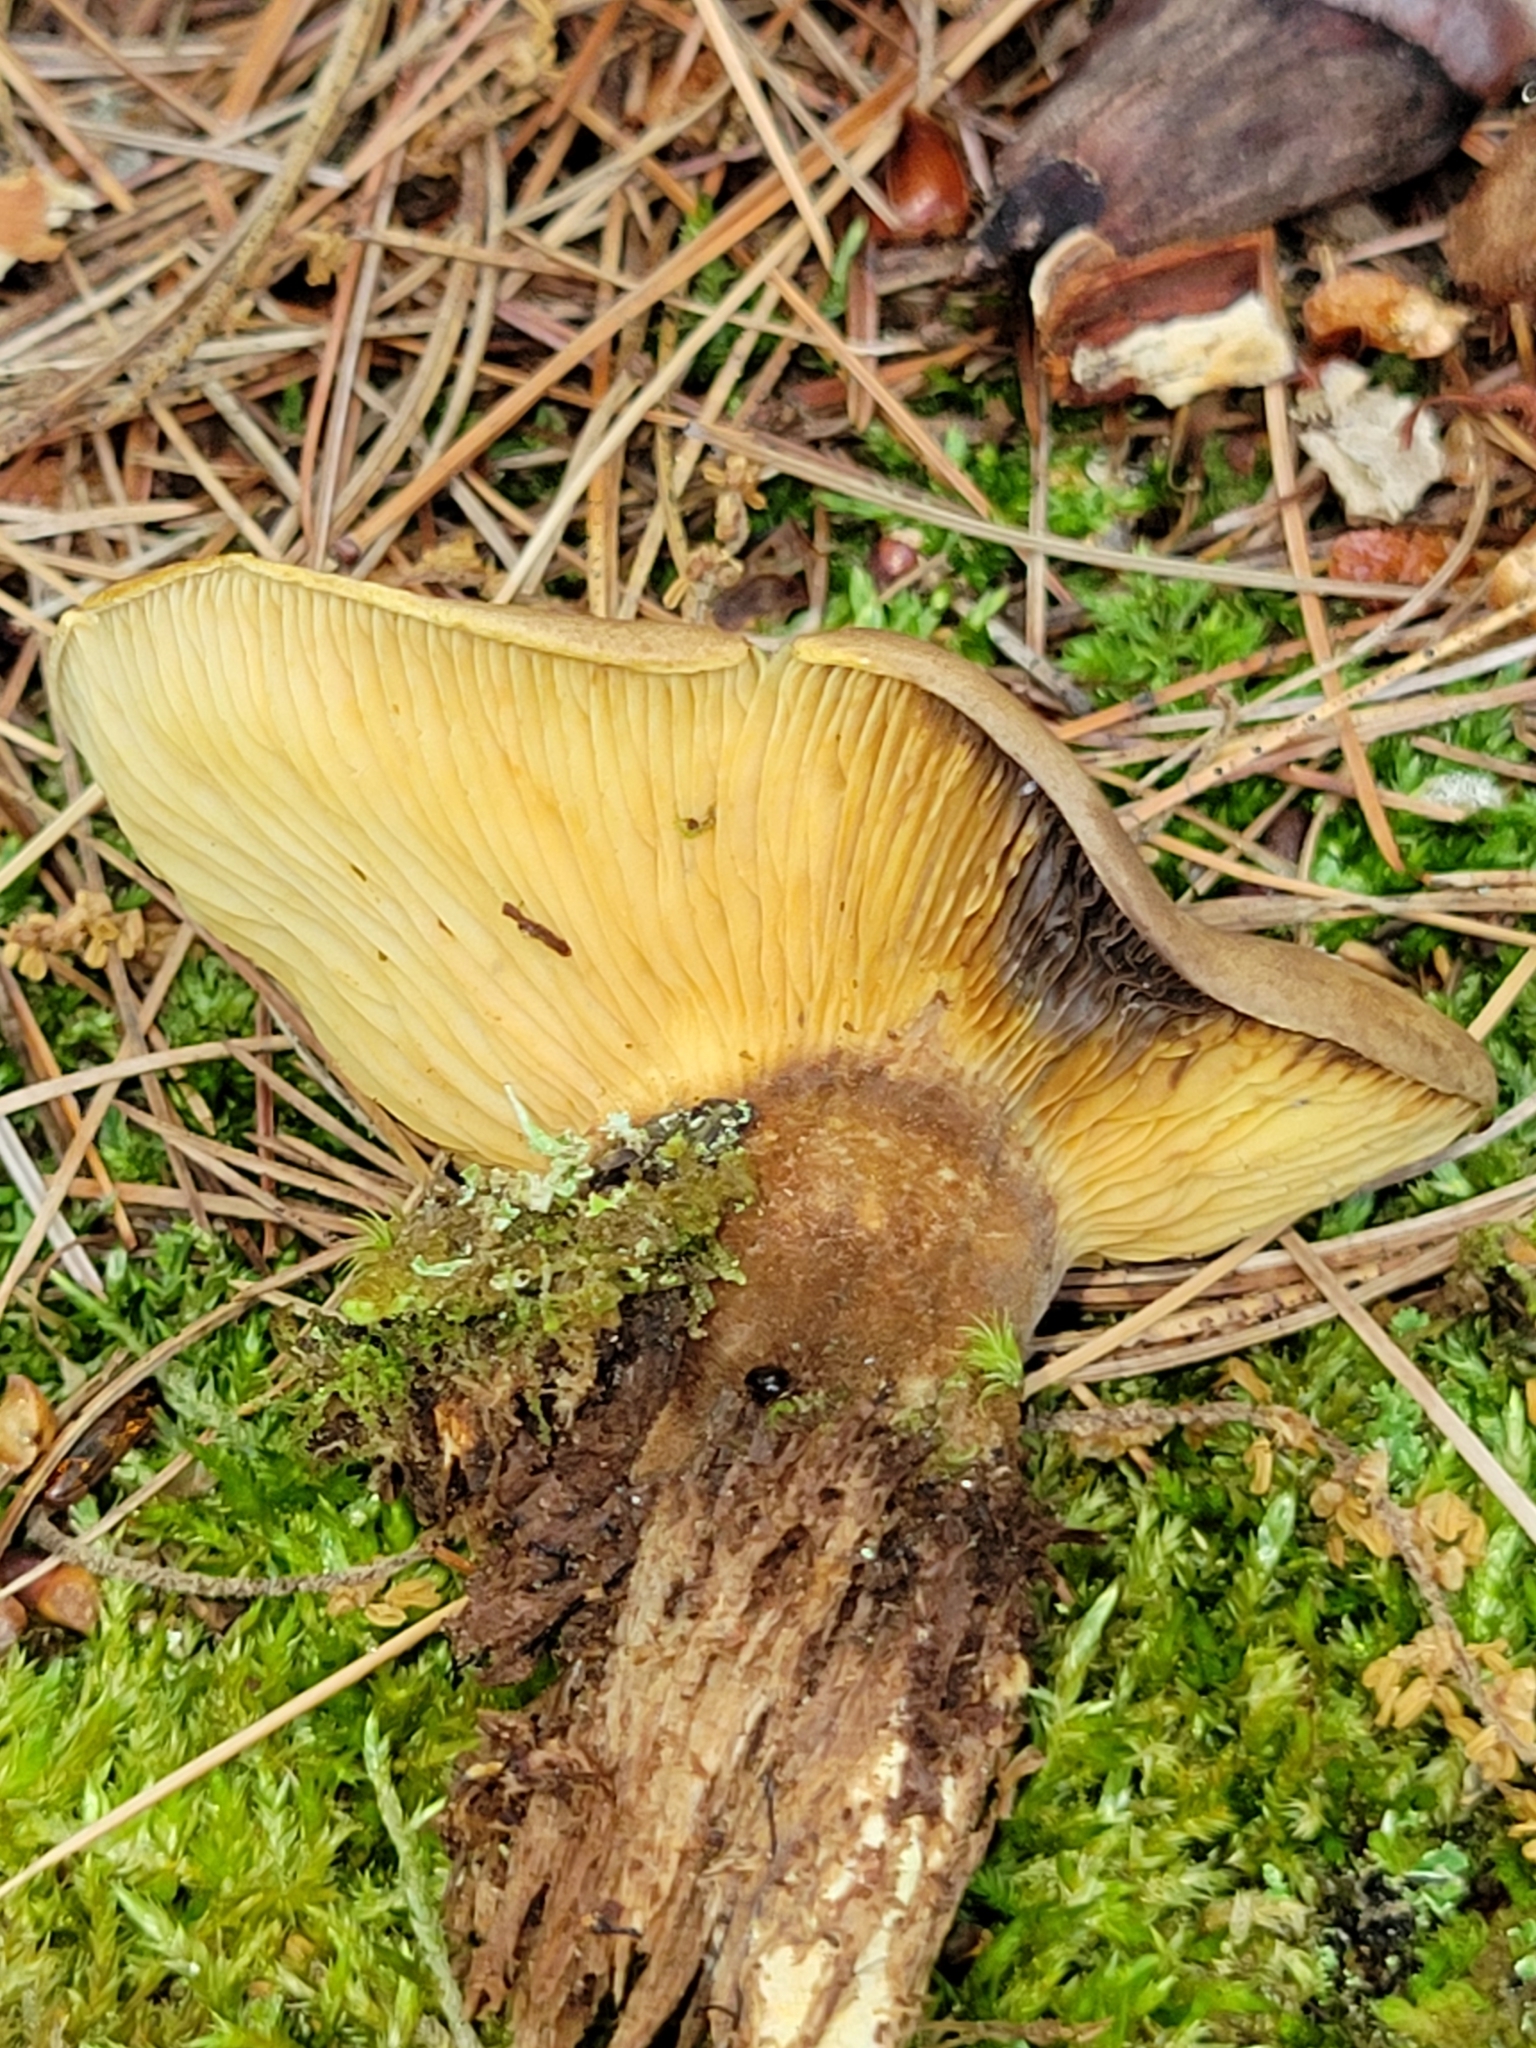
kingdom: Fungi
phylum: Basidiomycota
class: Agaricomycetes
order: Boletales
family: Tapinellaceae
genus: Tapinella
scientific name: Tapinella atrotomentosa
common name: Velvet rollrim
